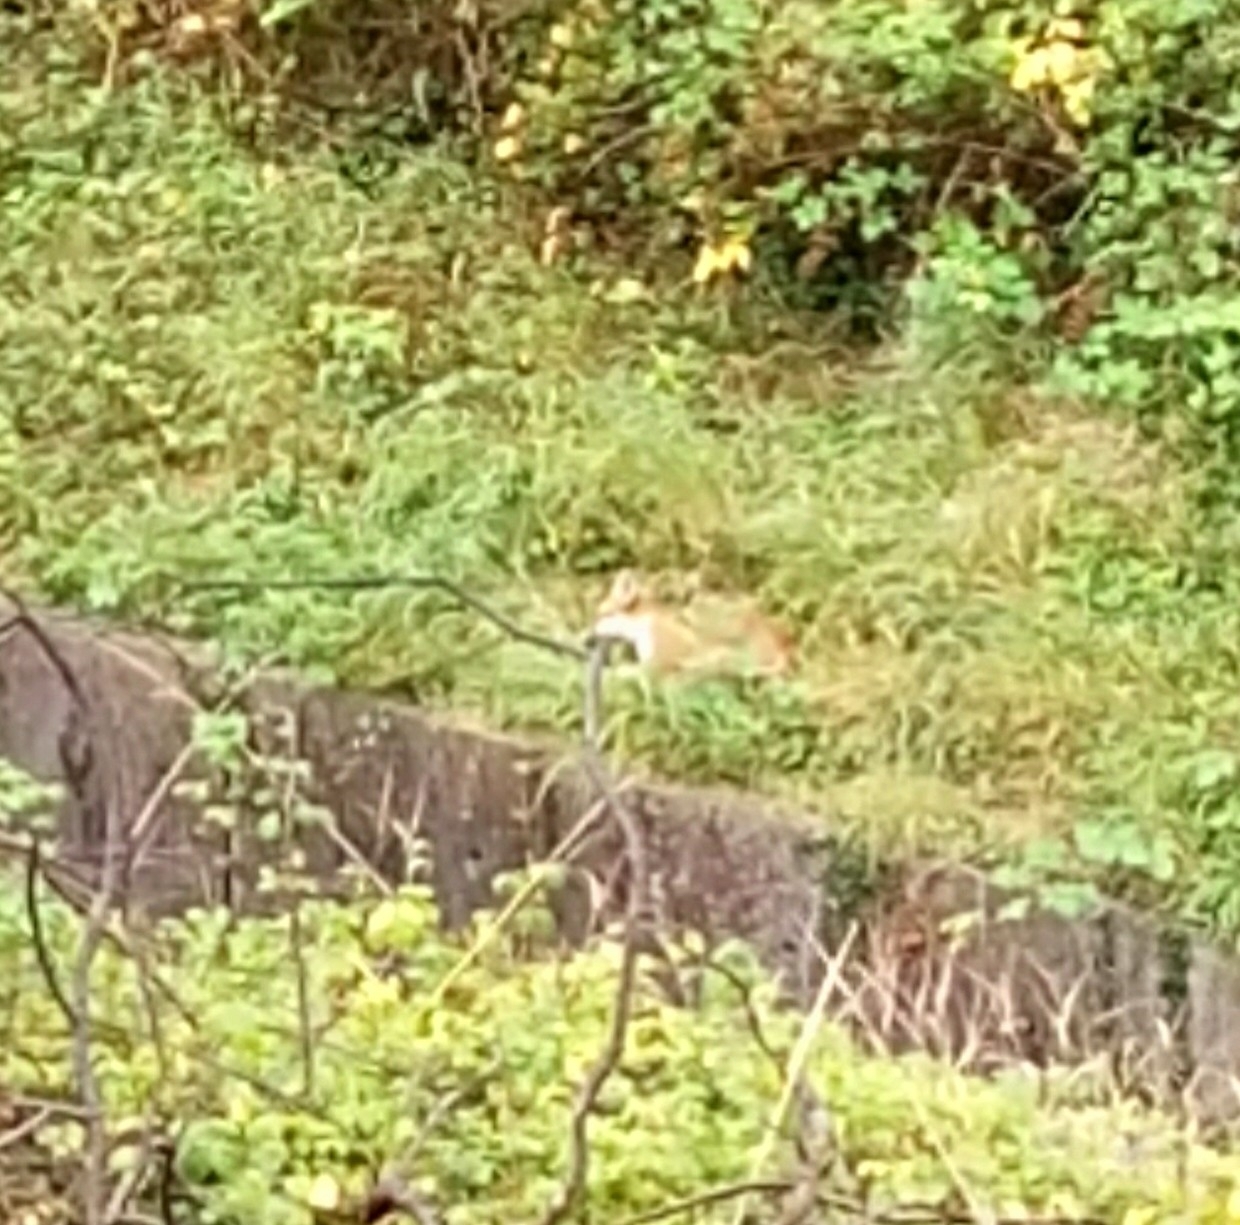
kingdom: Animalia
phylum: Chordata
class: Mammalia
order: Carnivora
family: Canidae
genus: Vulpes
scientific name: Vulpes vulpes
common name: Red fox
